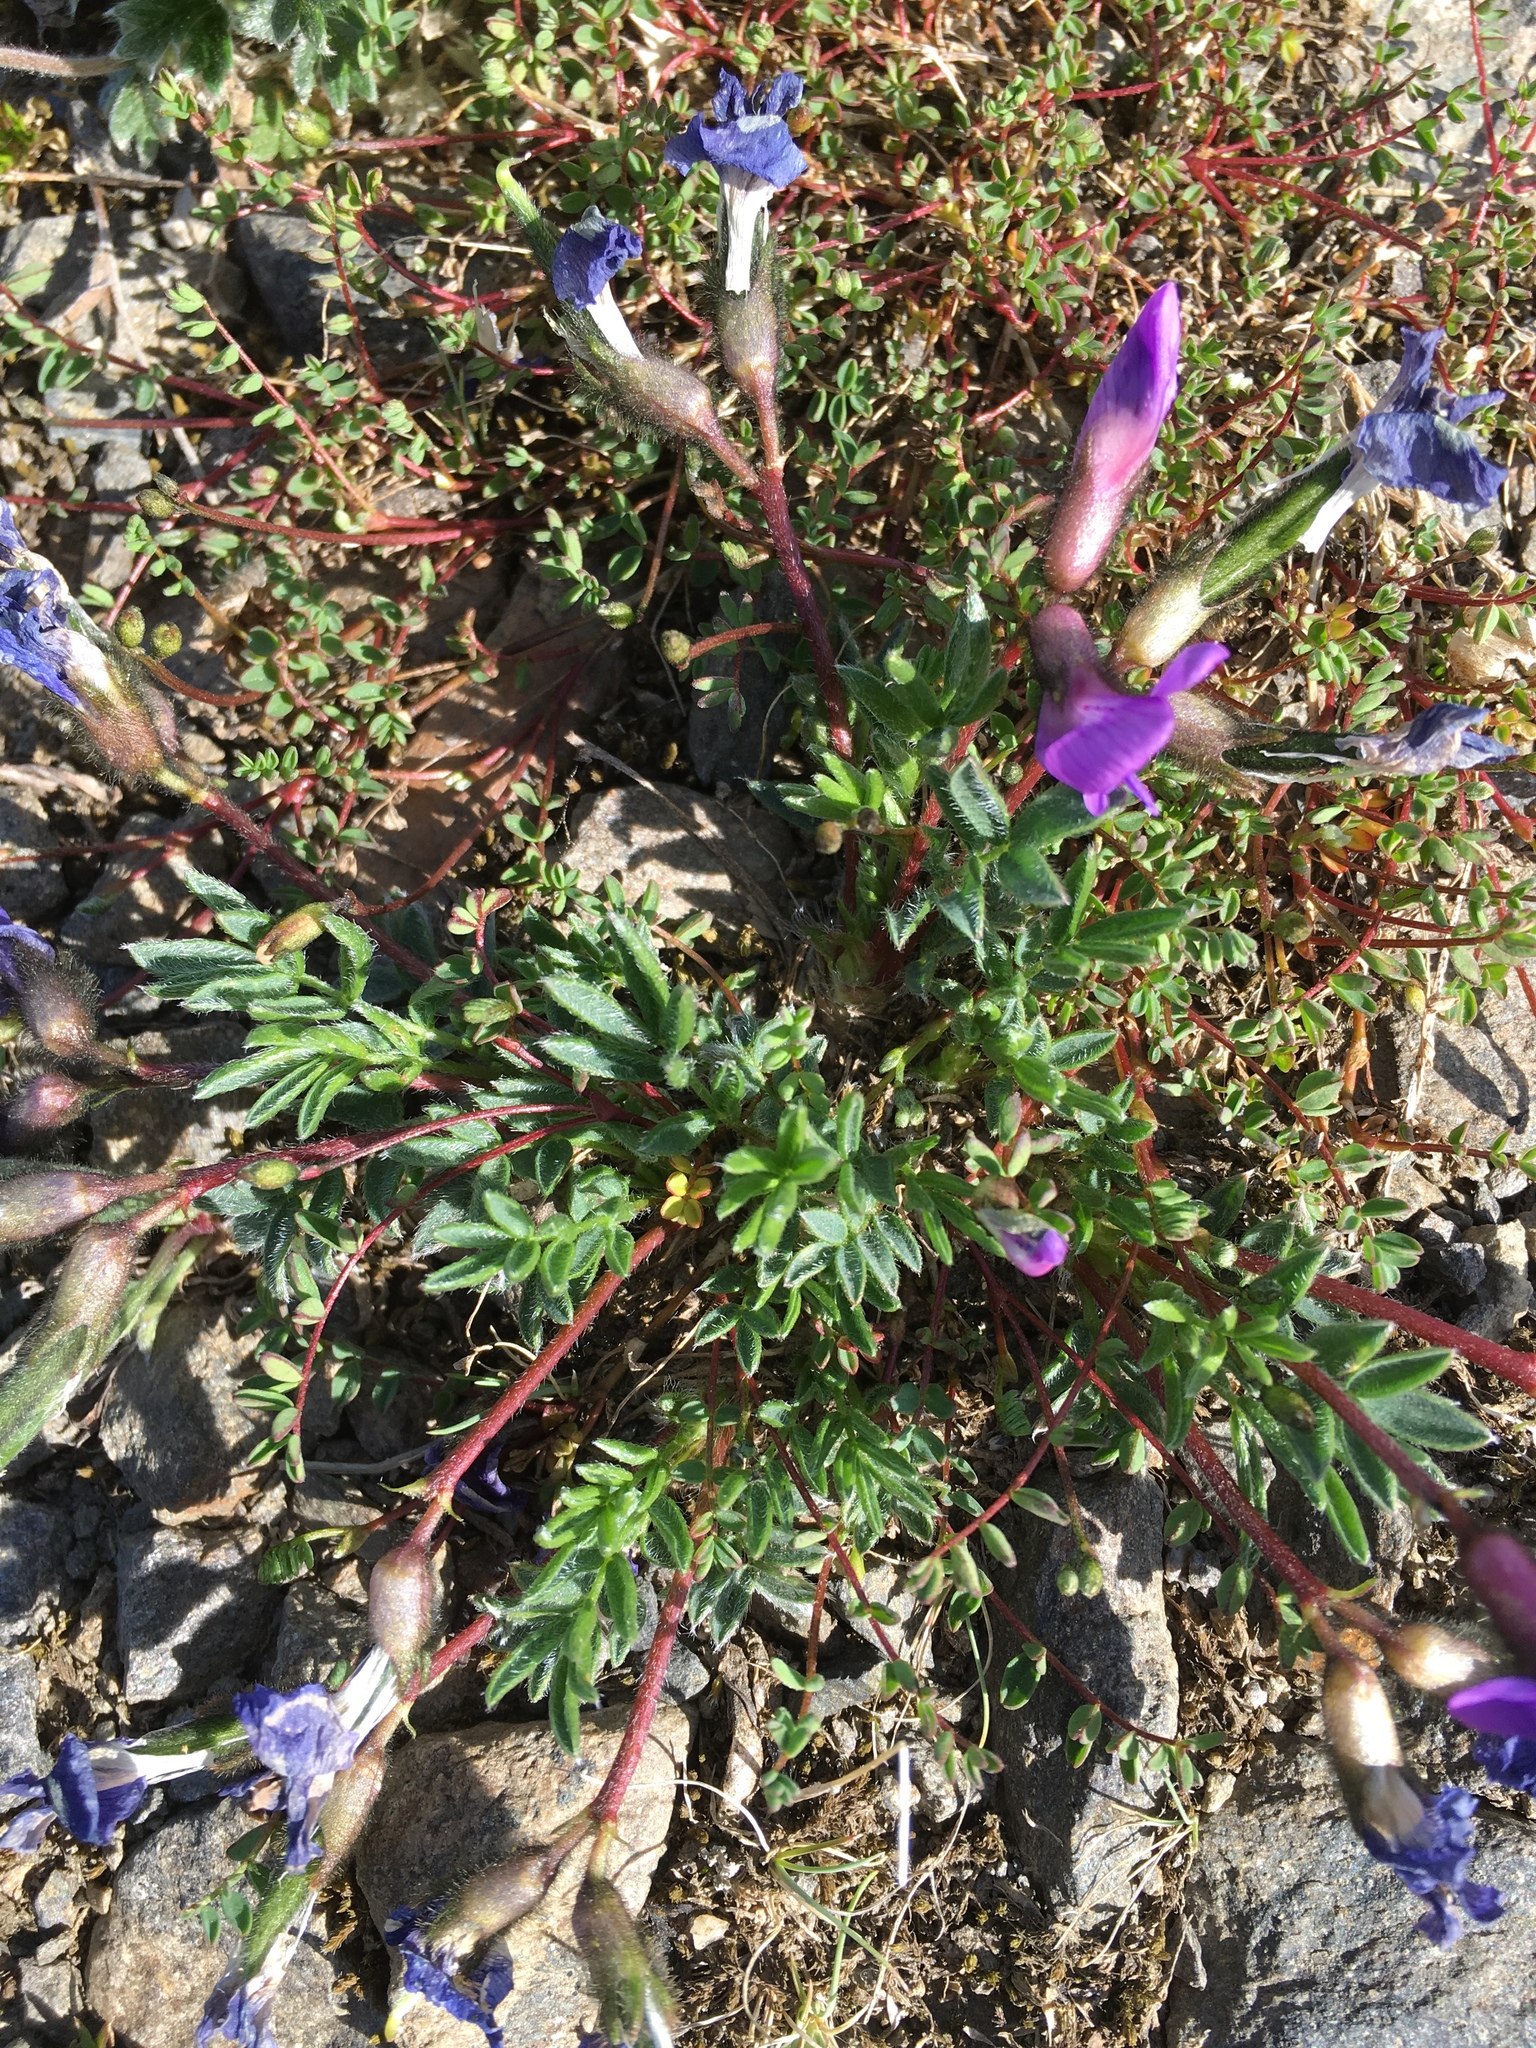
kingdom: Plantae
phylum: Tracheophyta
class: Magnoliopsida
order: Fabales
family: Fabaceae
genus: Oxytropis
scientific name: Oxytropis nigrescens
